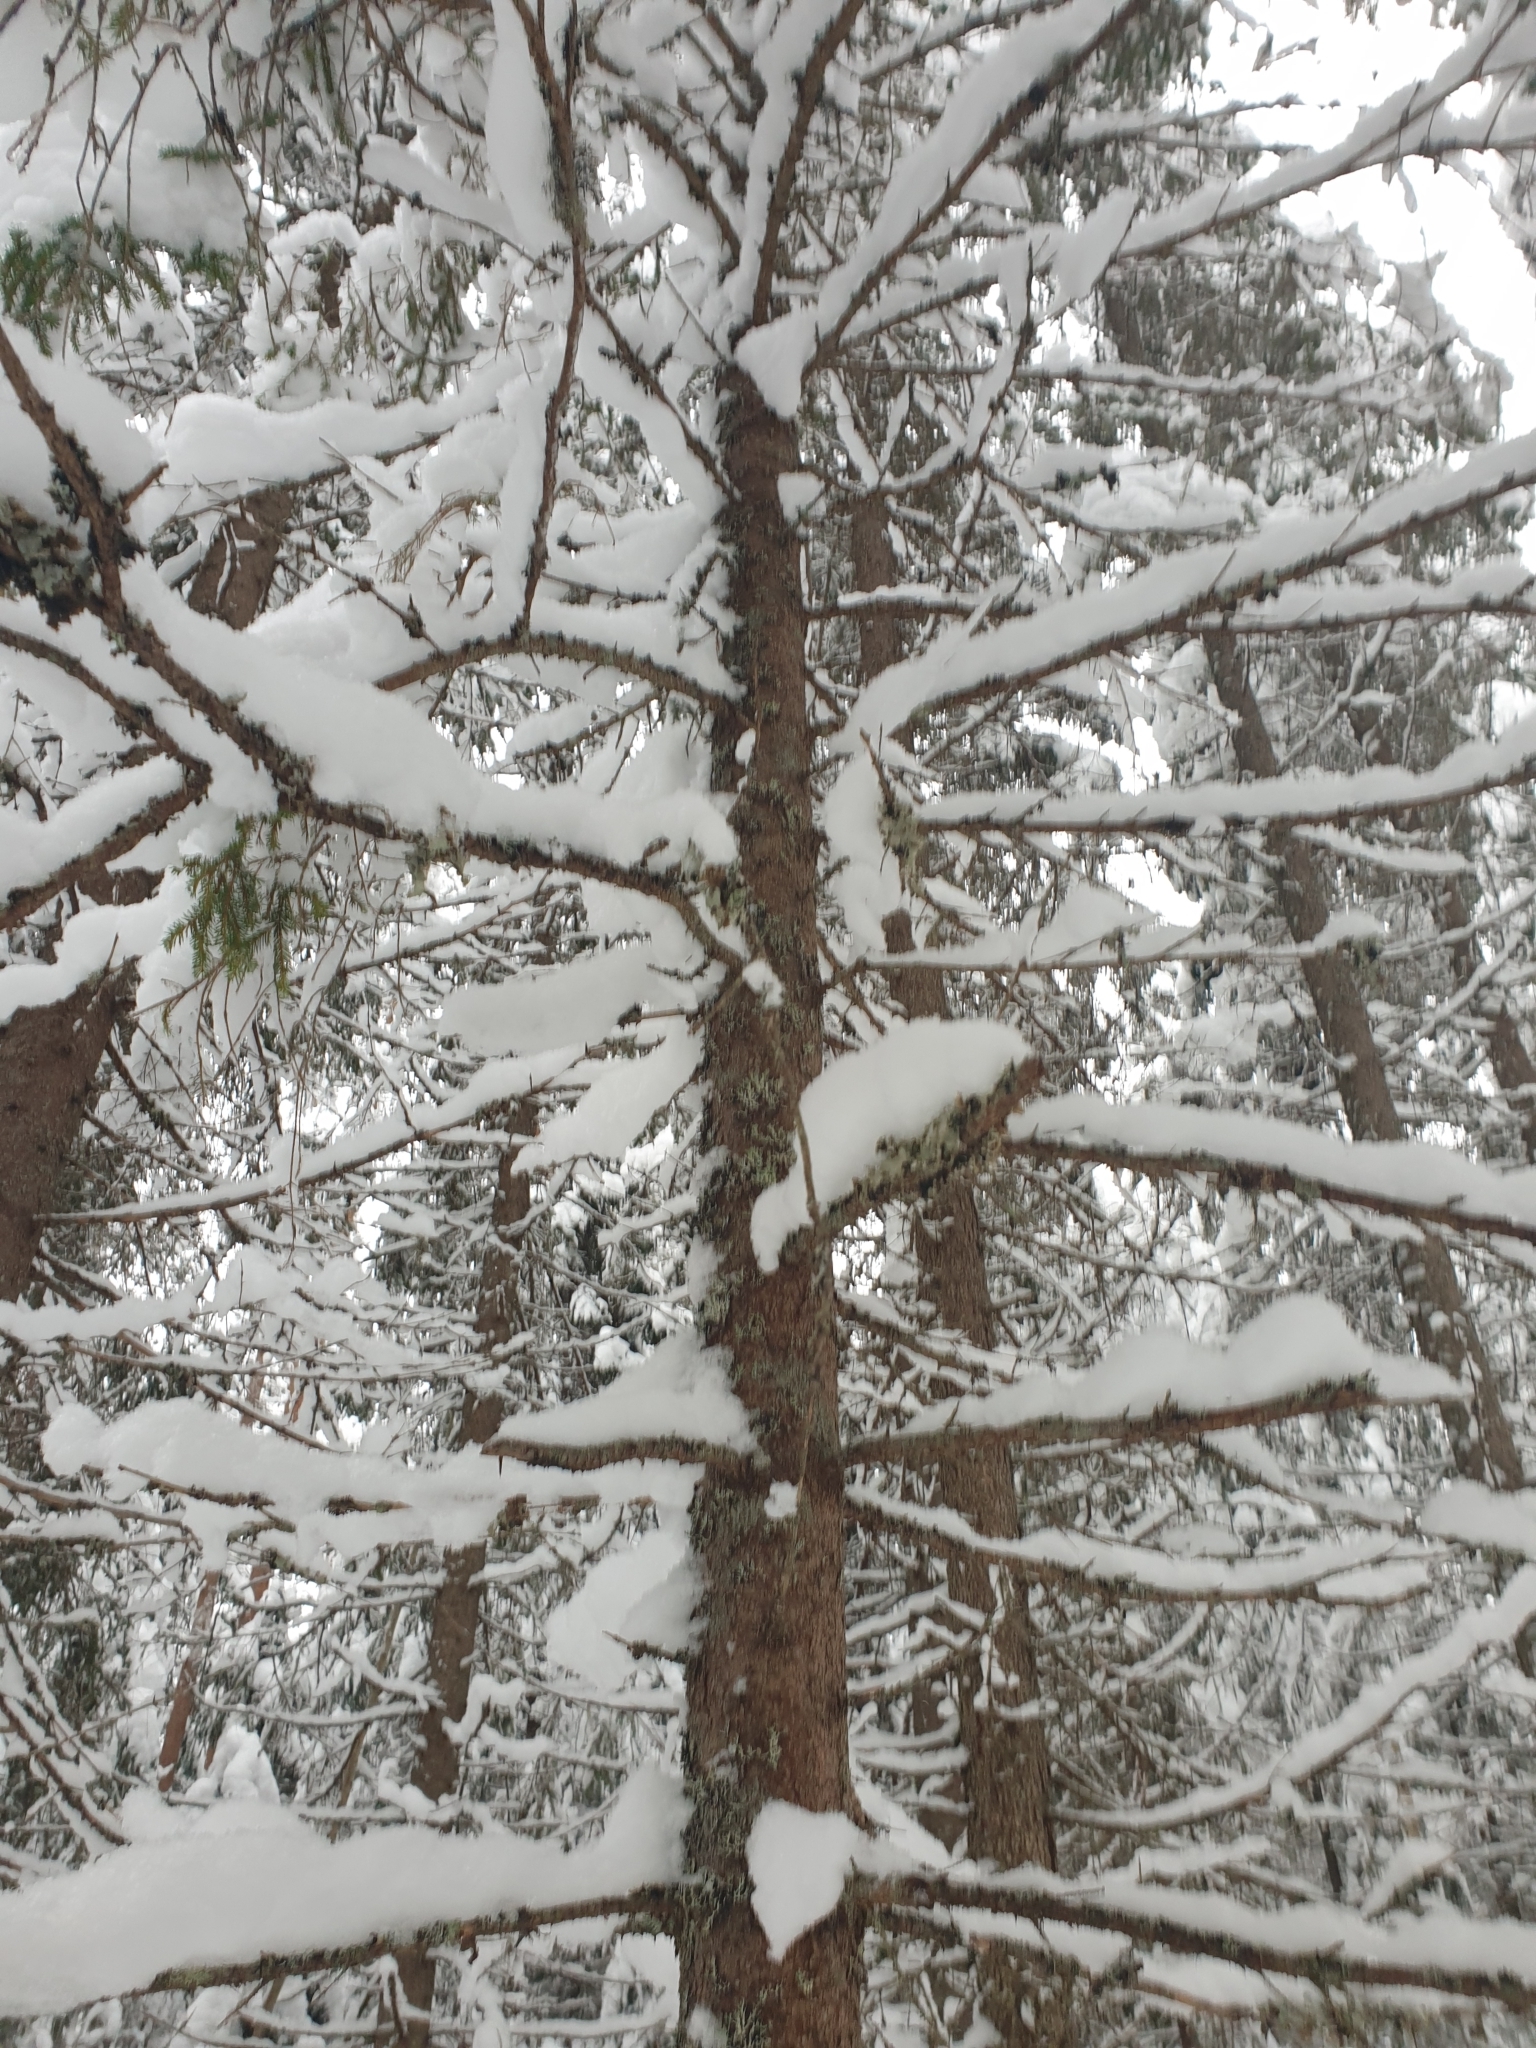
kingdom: Plantae
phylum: Tracheophyta
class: Pinopsida
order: Pinales
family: Pinaceae
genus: Picea
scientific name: Picea abies
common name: Norway spruce
